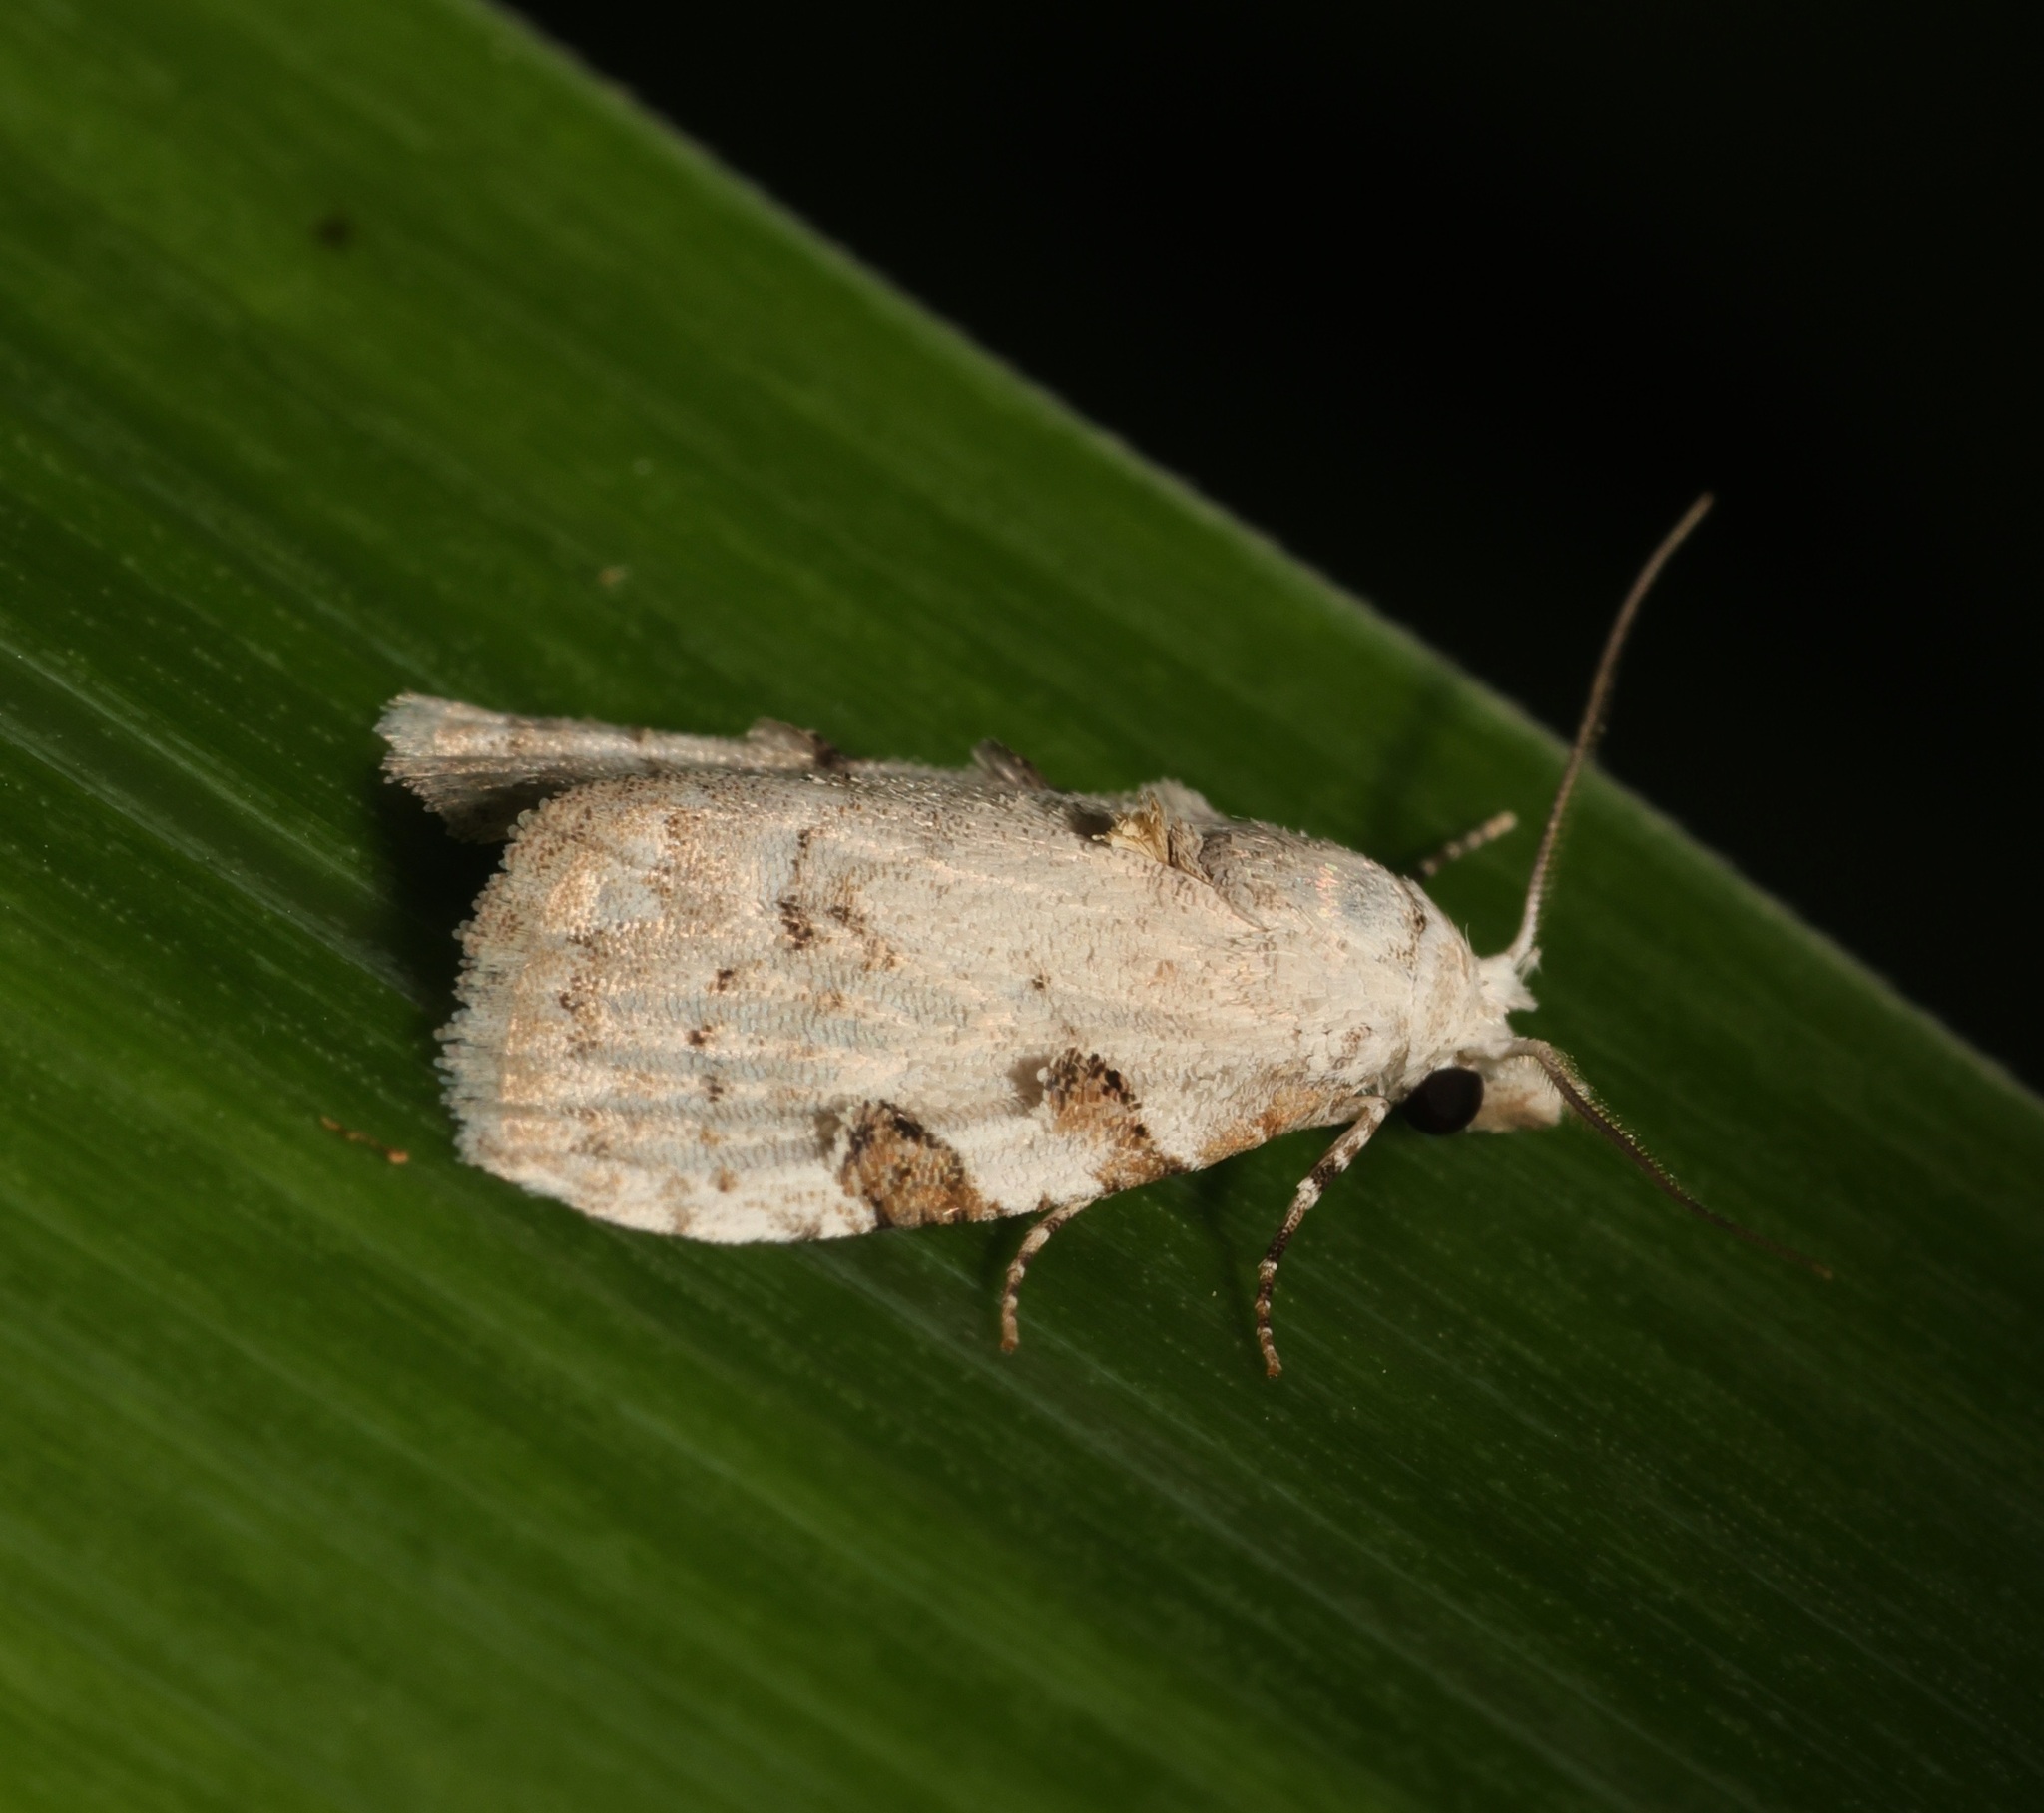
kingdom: Animalia
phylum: Arthropoda
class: Insecta
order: Lepidoptera
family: Nolidae
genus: Nola
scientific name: Nola pascua
